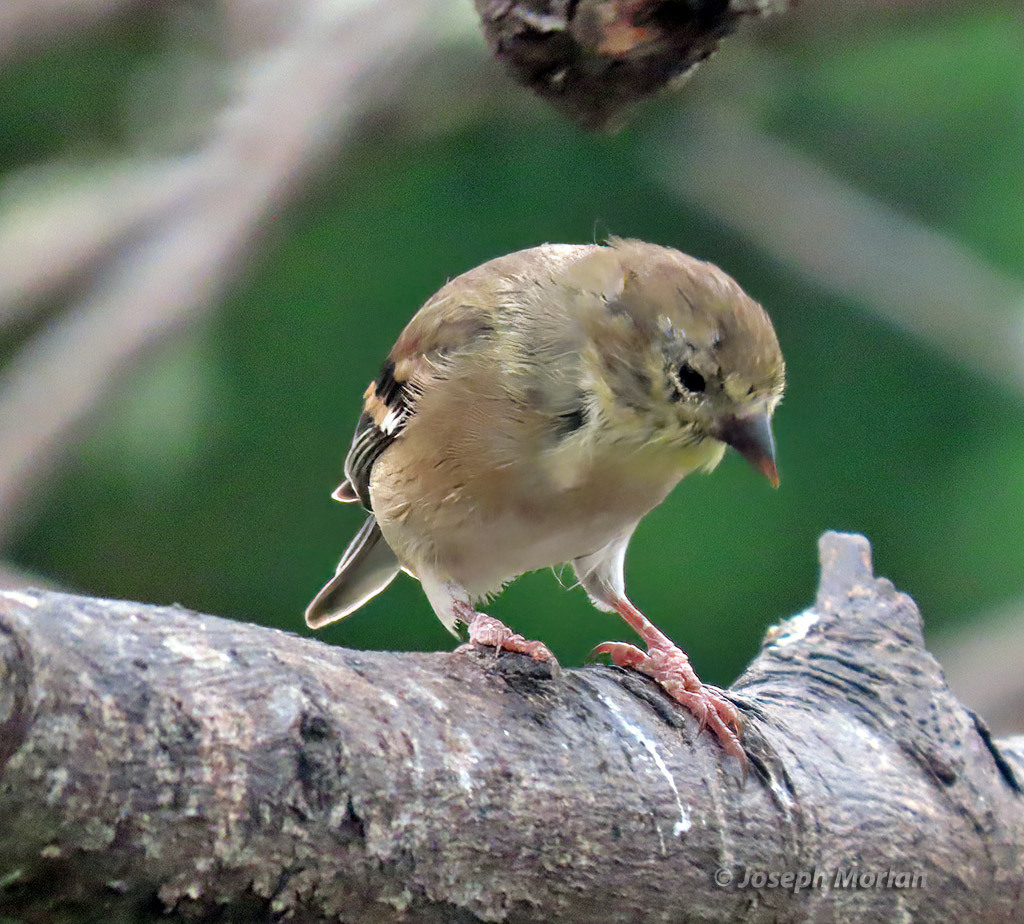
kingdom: Animalia
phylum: Chordata
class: Aves
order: Passeriformes
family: Fringillidae
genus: Spinus
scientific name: Spinus tristis
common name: American goldfinch
